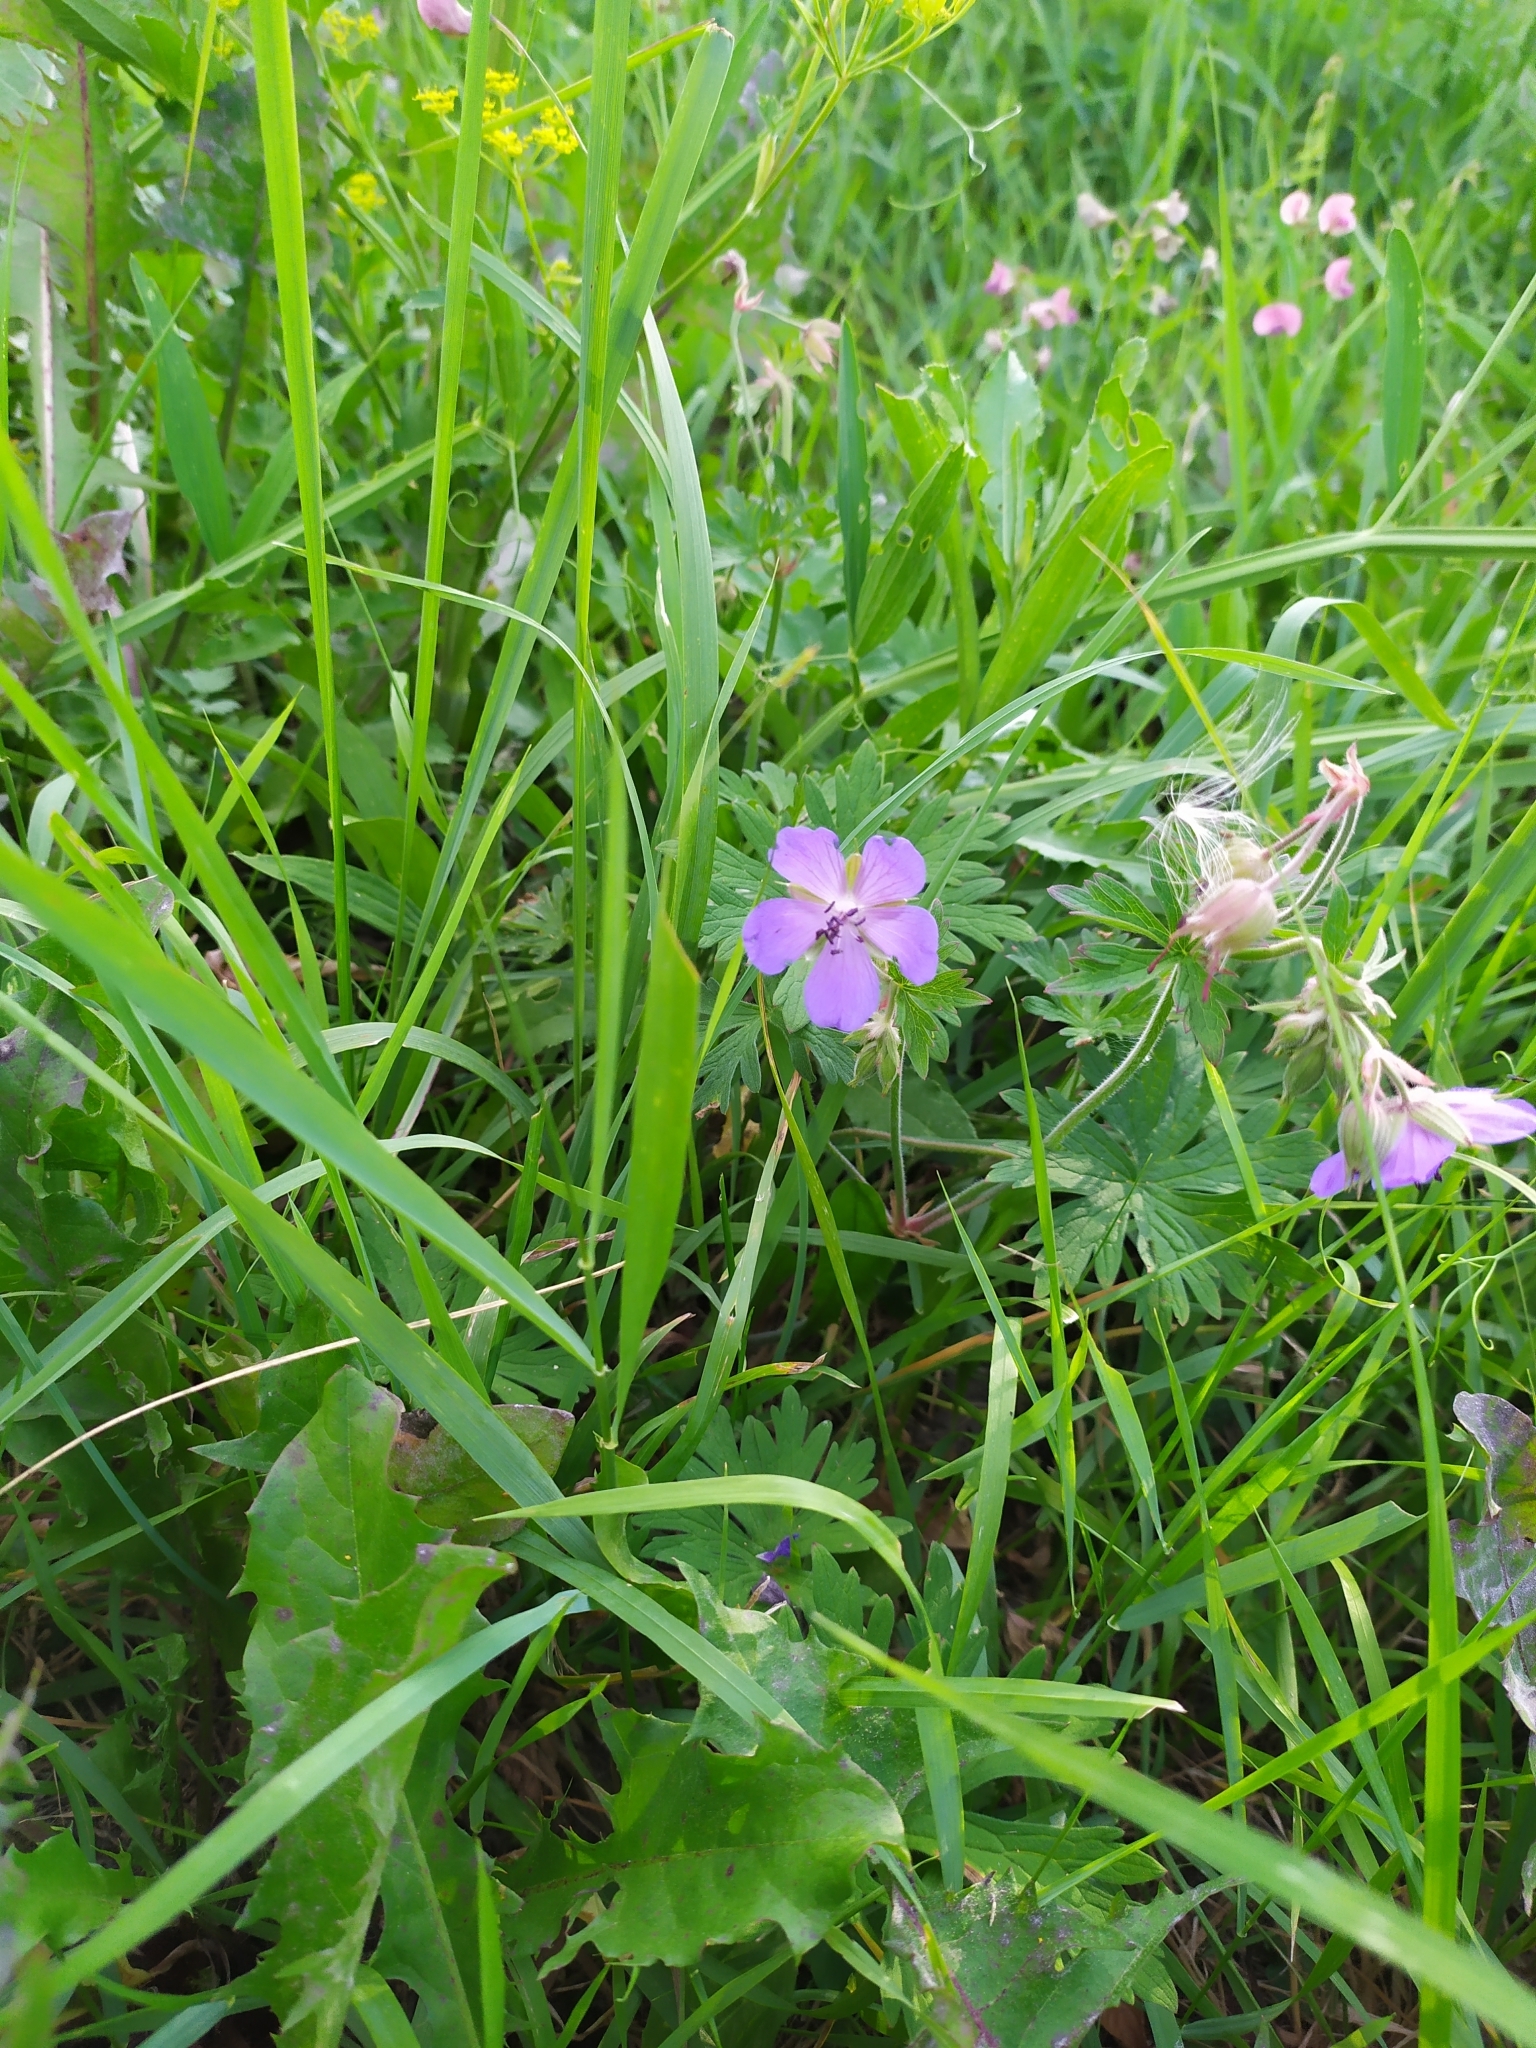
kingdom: Plantae
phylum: Tracheophyta
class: Magnoliopsida
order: Geraniales
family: Geraniaceae
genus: Geranium
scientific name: Geranium pratense
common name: Meadow crane's-bill
